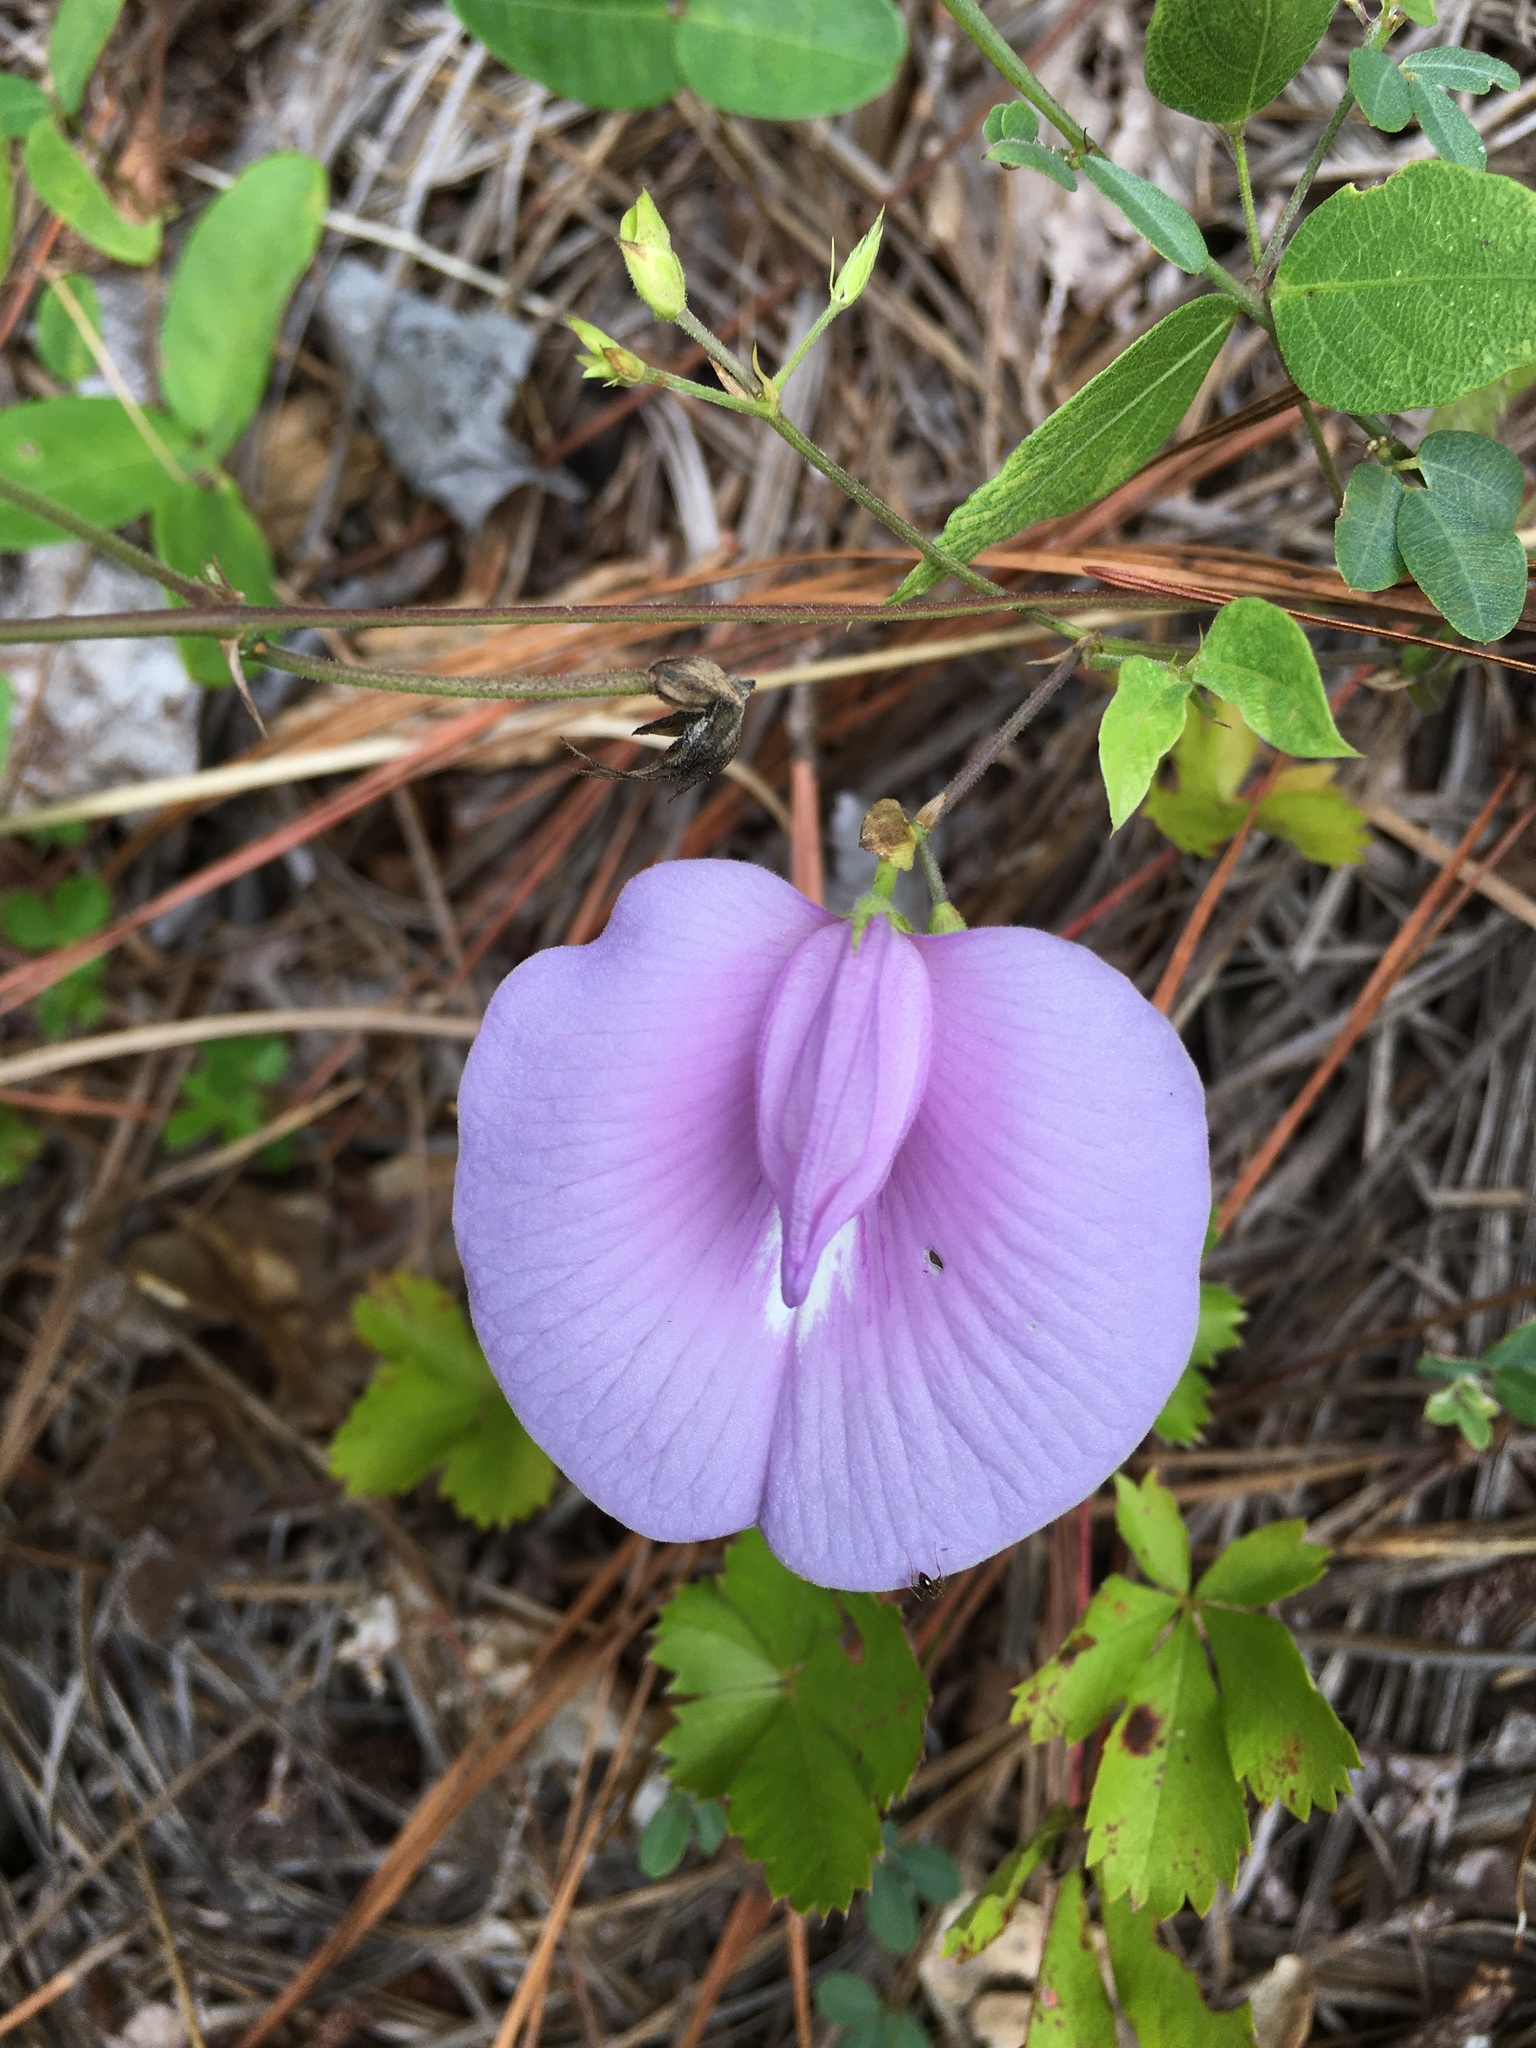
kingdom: Plantae
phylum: Tracheophyta
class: Magnoliopsida
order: Fabales
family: Fabaceae
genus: Centrosema
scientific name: Centrosema virginianum
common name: Butterfly-pea
